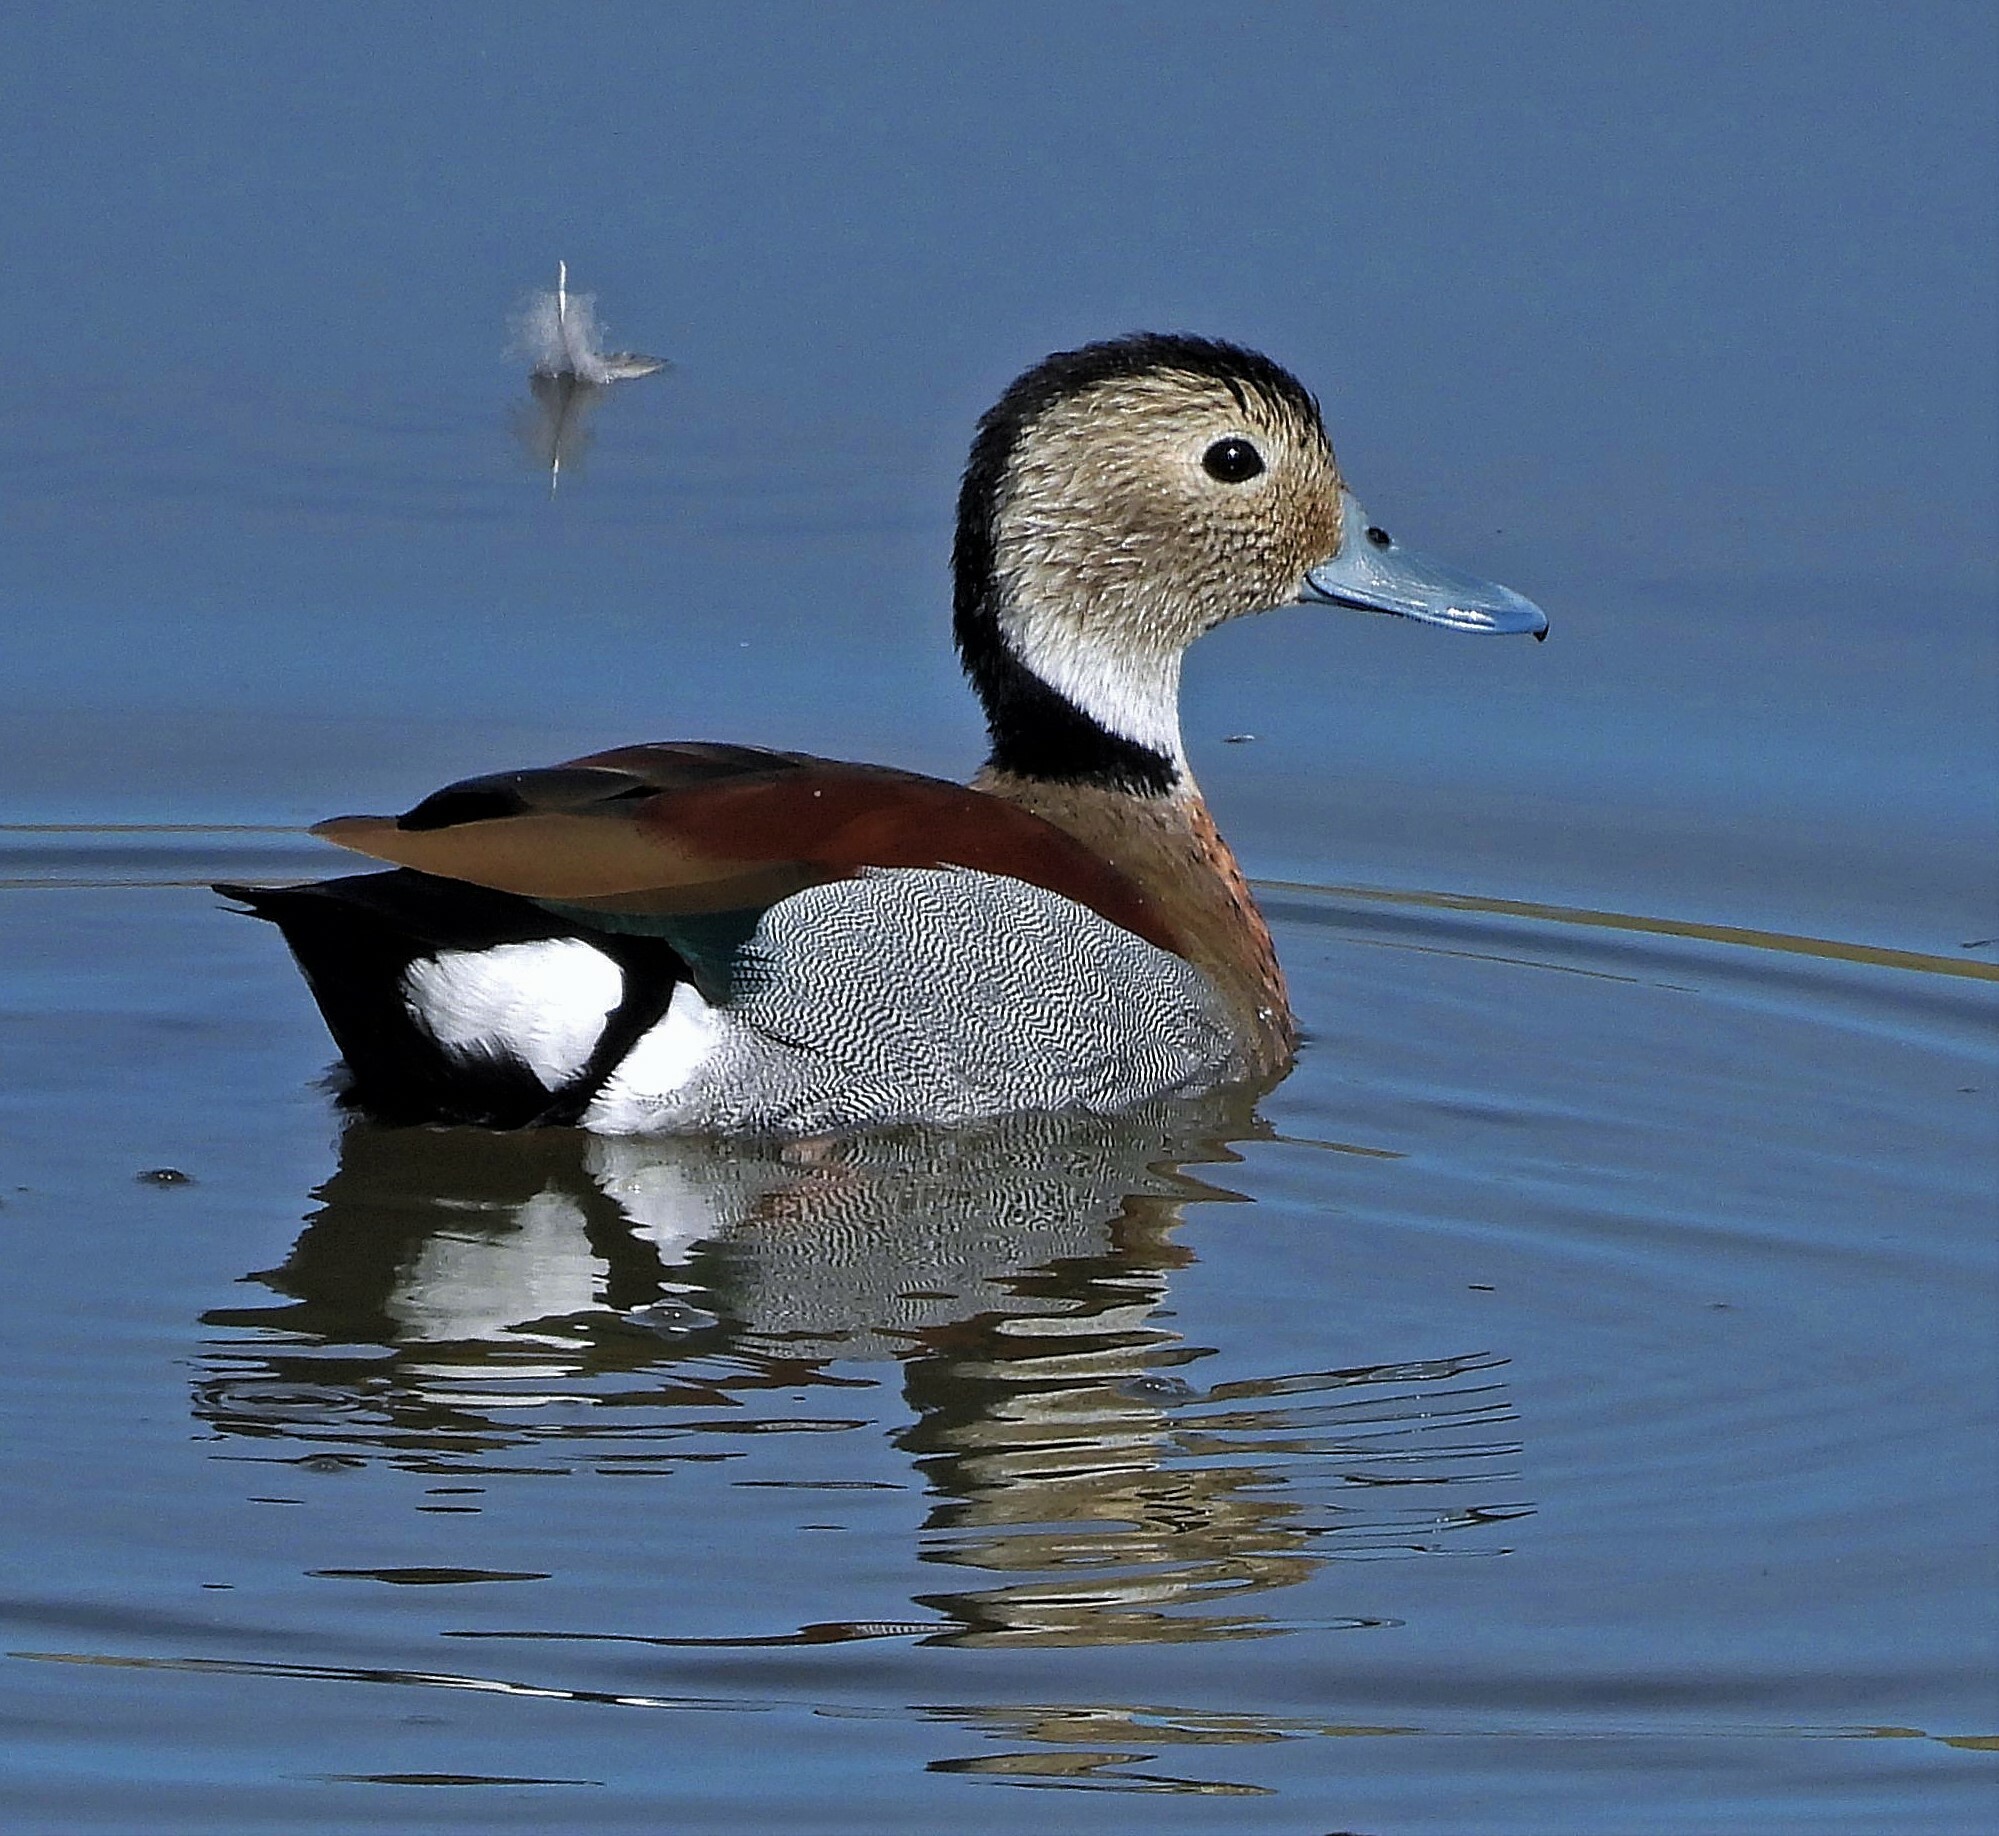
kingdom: Animalia
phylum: Chordata
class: Aves
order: Anseriformes
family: Anatidae
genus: Callonetta
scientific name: Callonetta leucophrys
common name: Ringed teal
